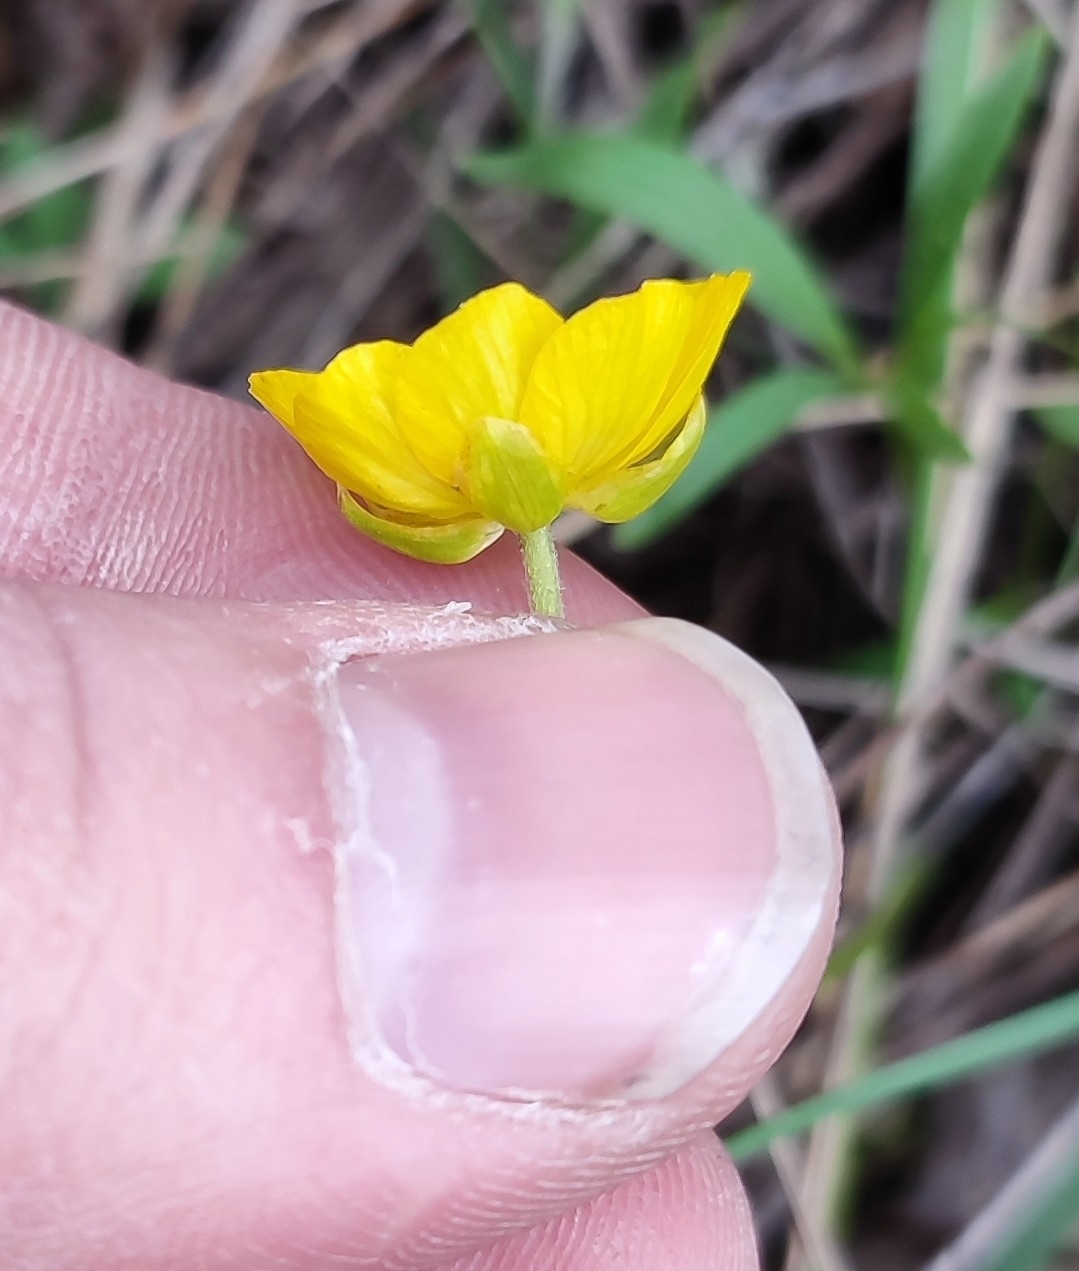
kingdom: Plantae
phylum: Tracheophyta
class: Magnoliopsida
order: Ranunculales
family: Ranunculaceae
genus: Ranunculus
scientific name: Ranunculus pedatus
